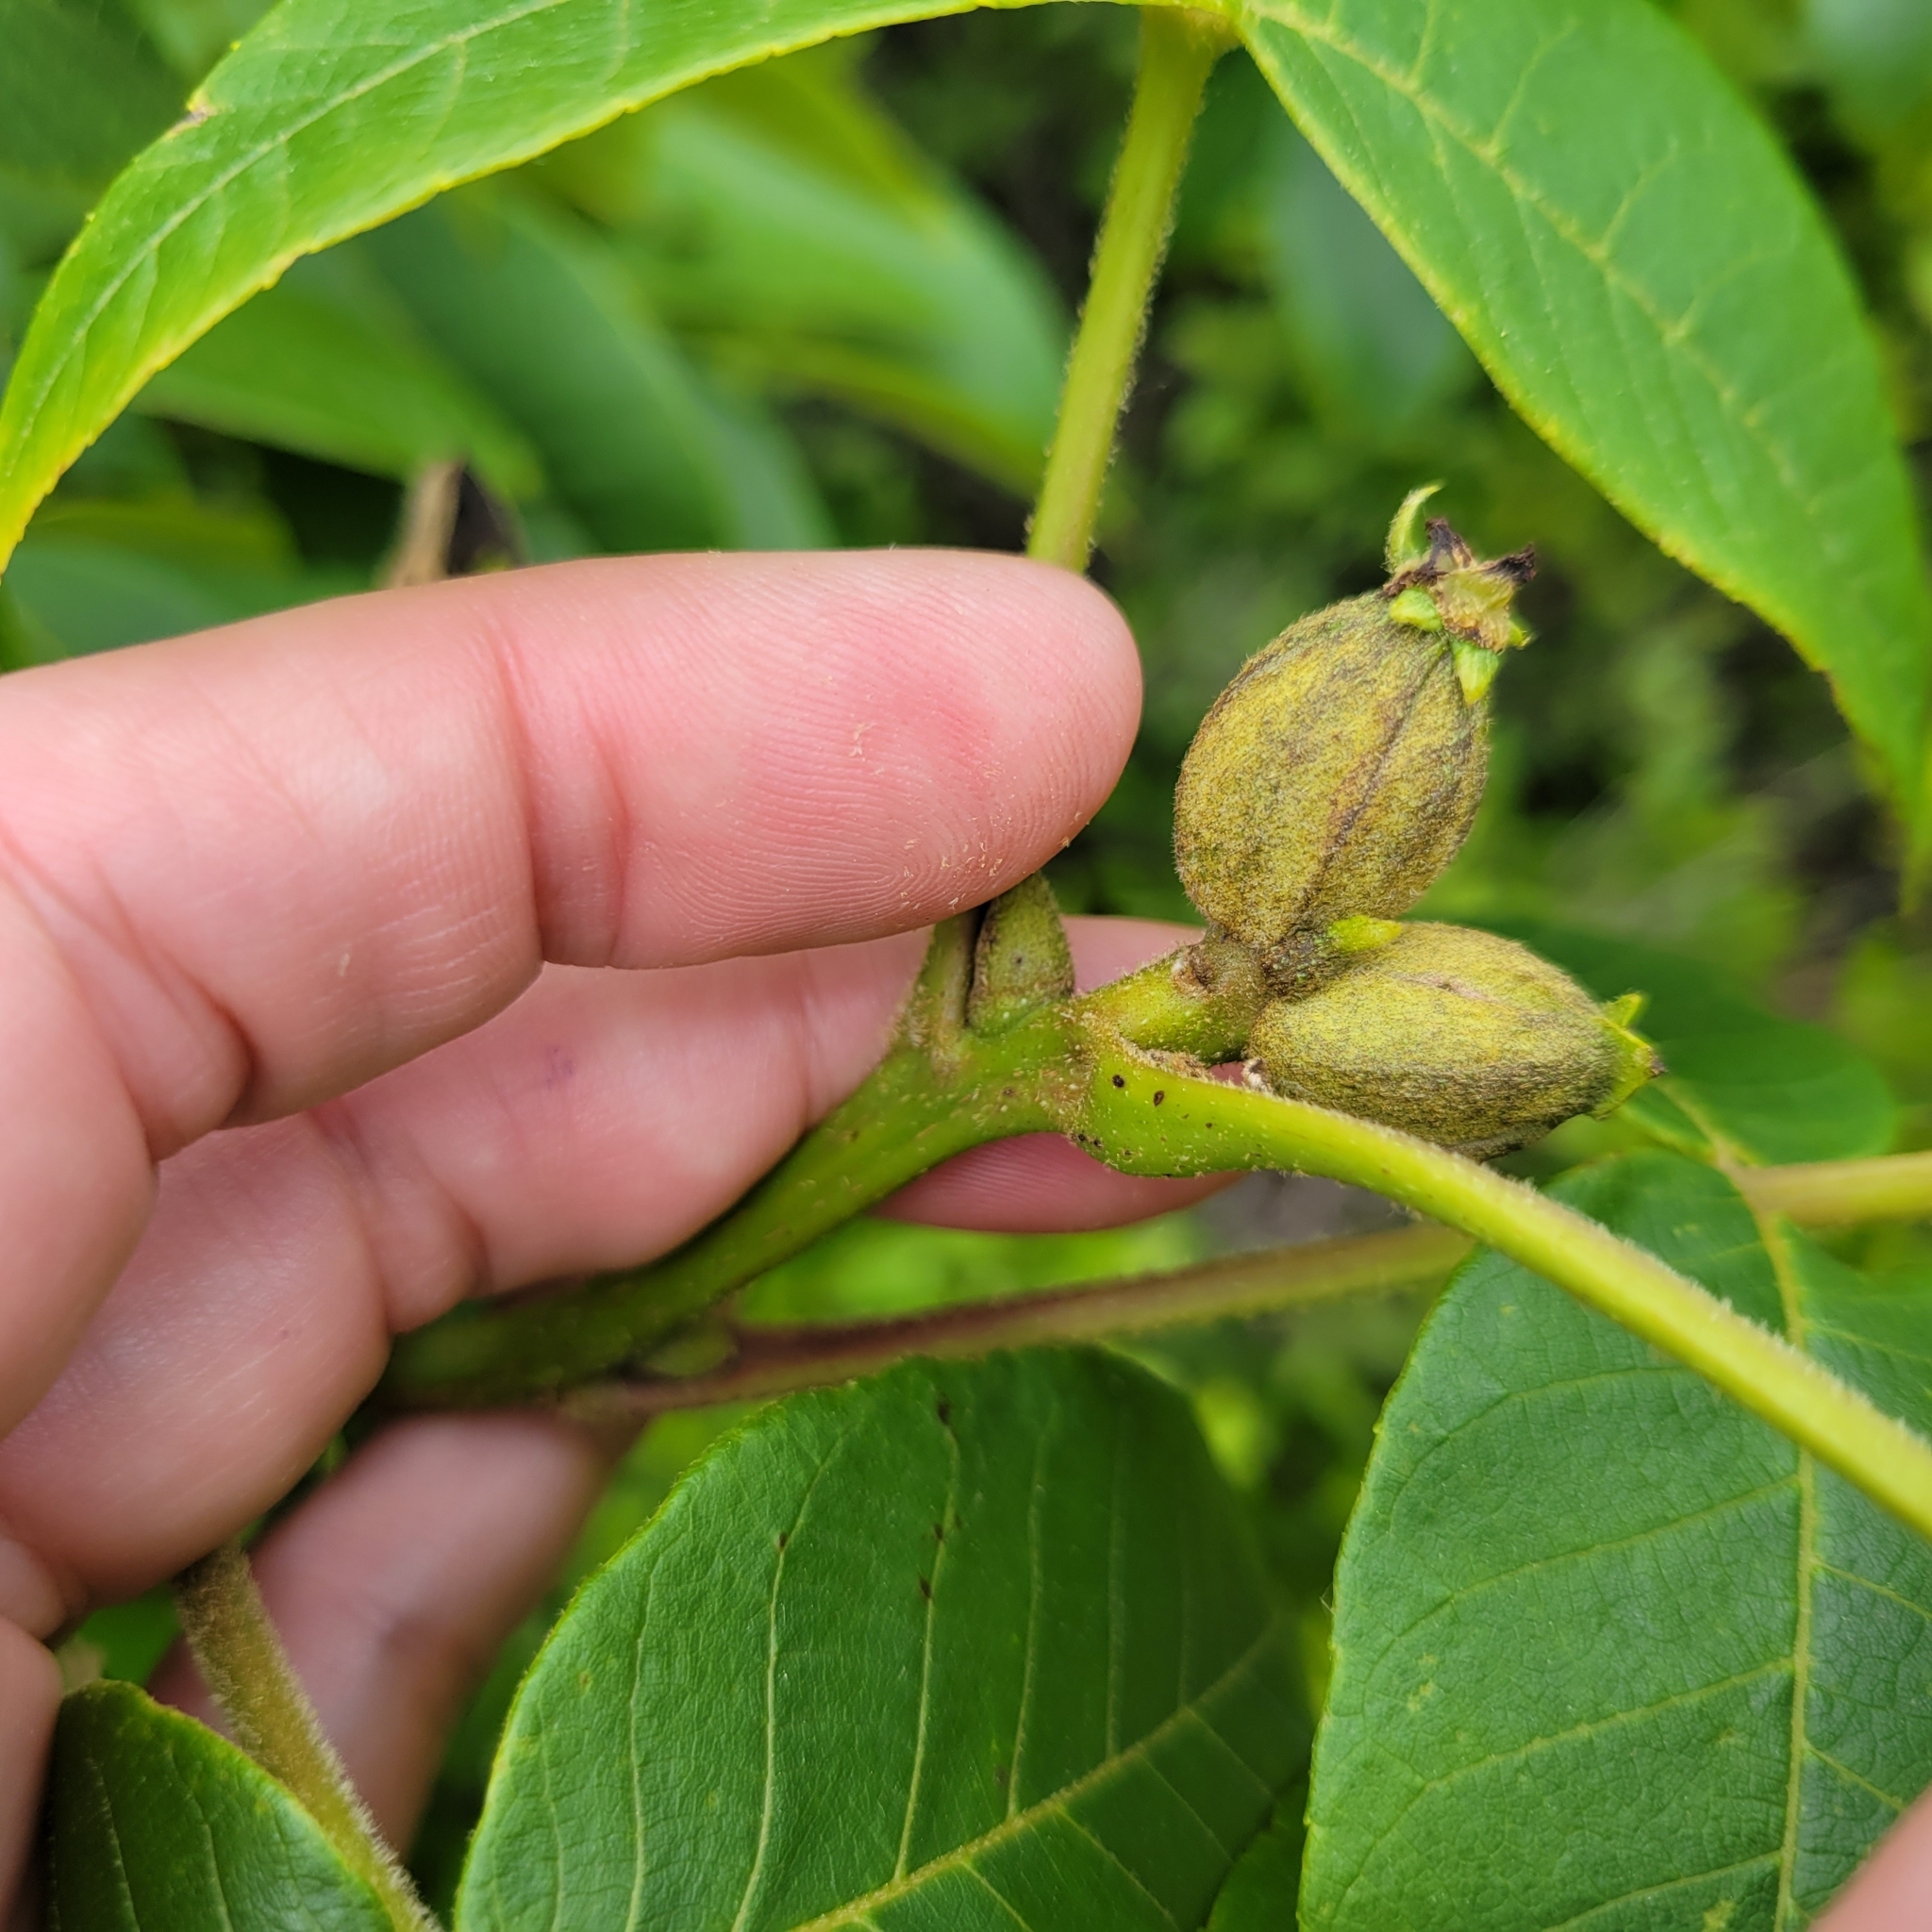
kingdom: Plantae
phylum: Tracheophyta
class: Magnoliopsida
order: Fagales
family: Juglandaceae
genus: Carya
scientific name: Carya alba
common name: Mockernut hickory
